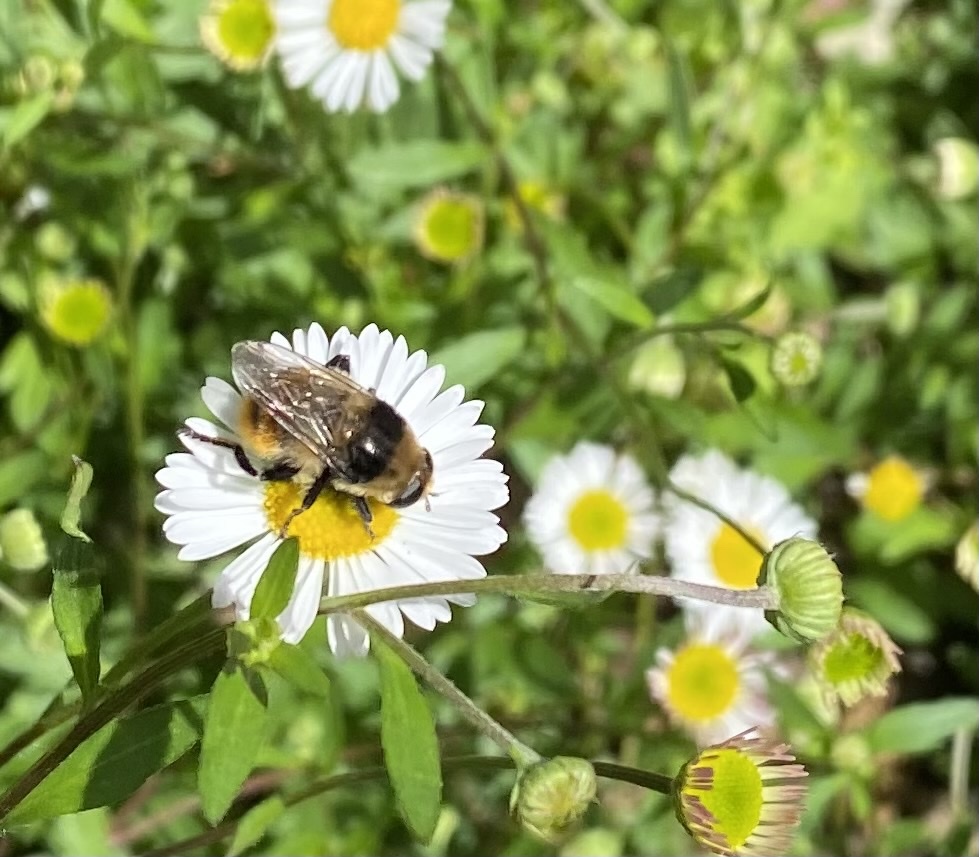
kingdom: Animalia
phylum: Arthropoda
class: Insecta
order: Diptera
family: Syrphidae
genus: Merodon
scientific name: Merodon equestris
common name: Greater bulb-fly
